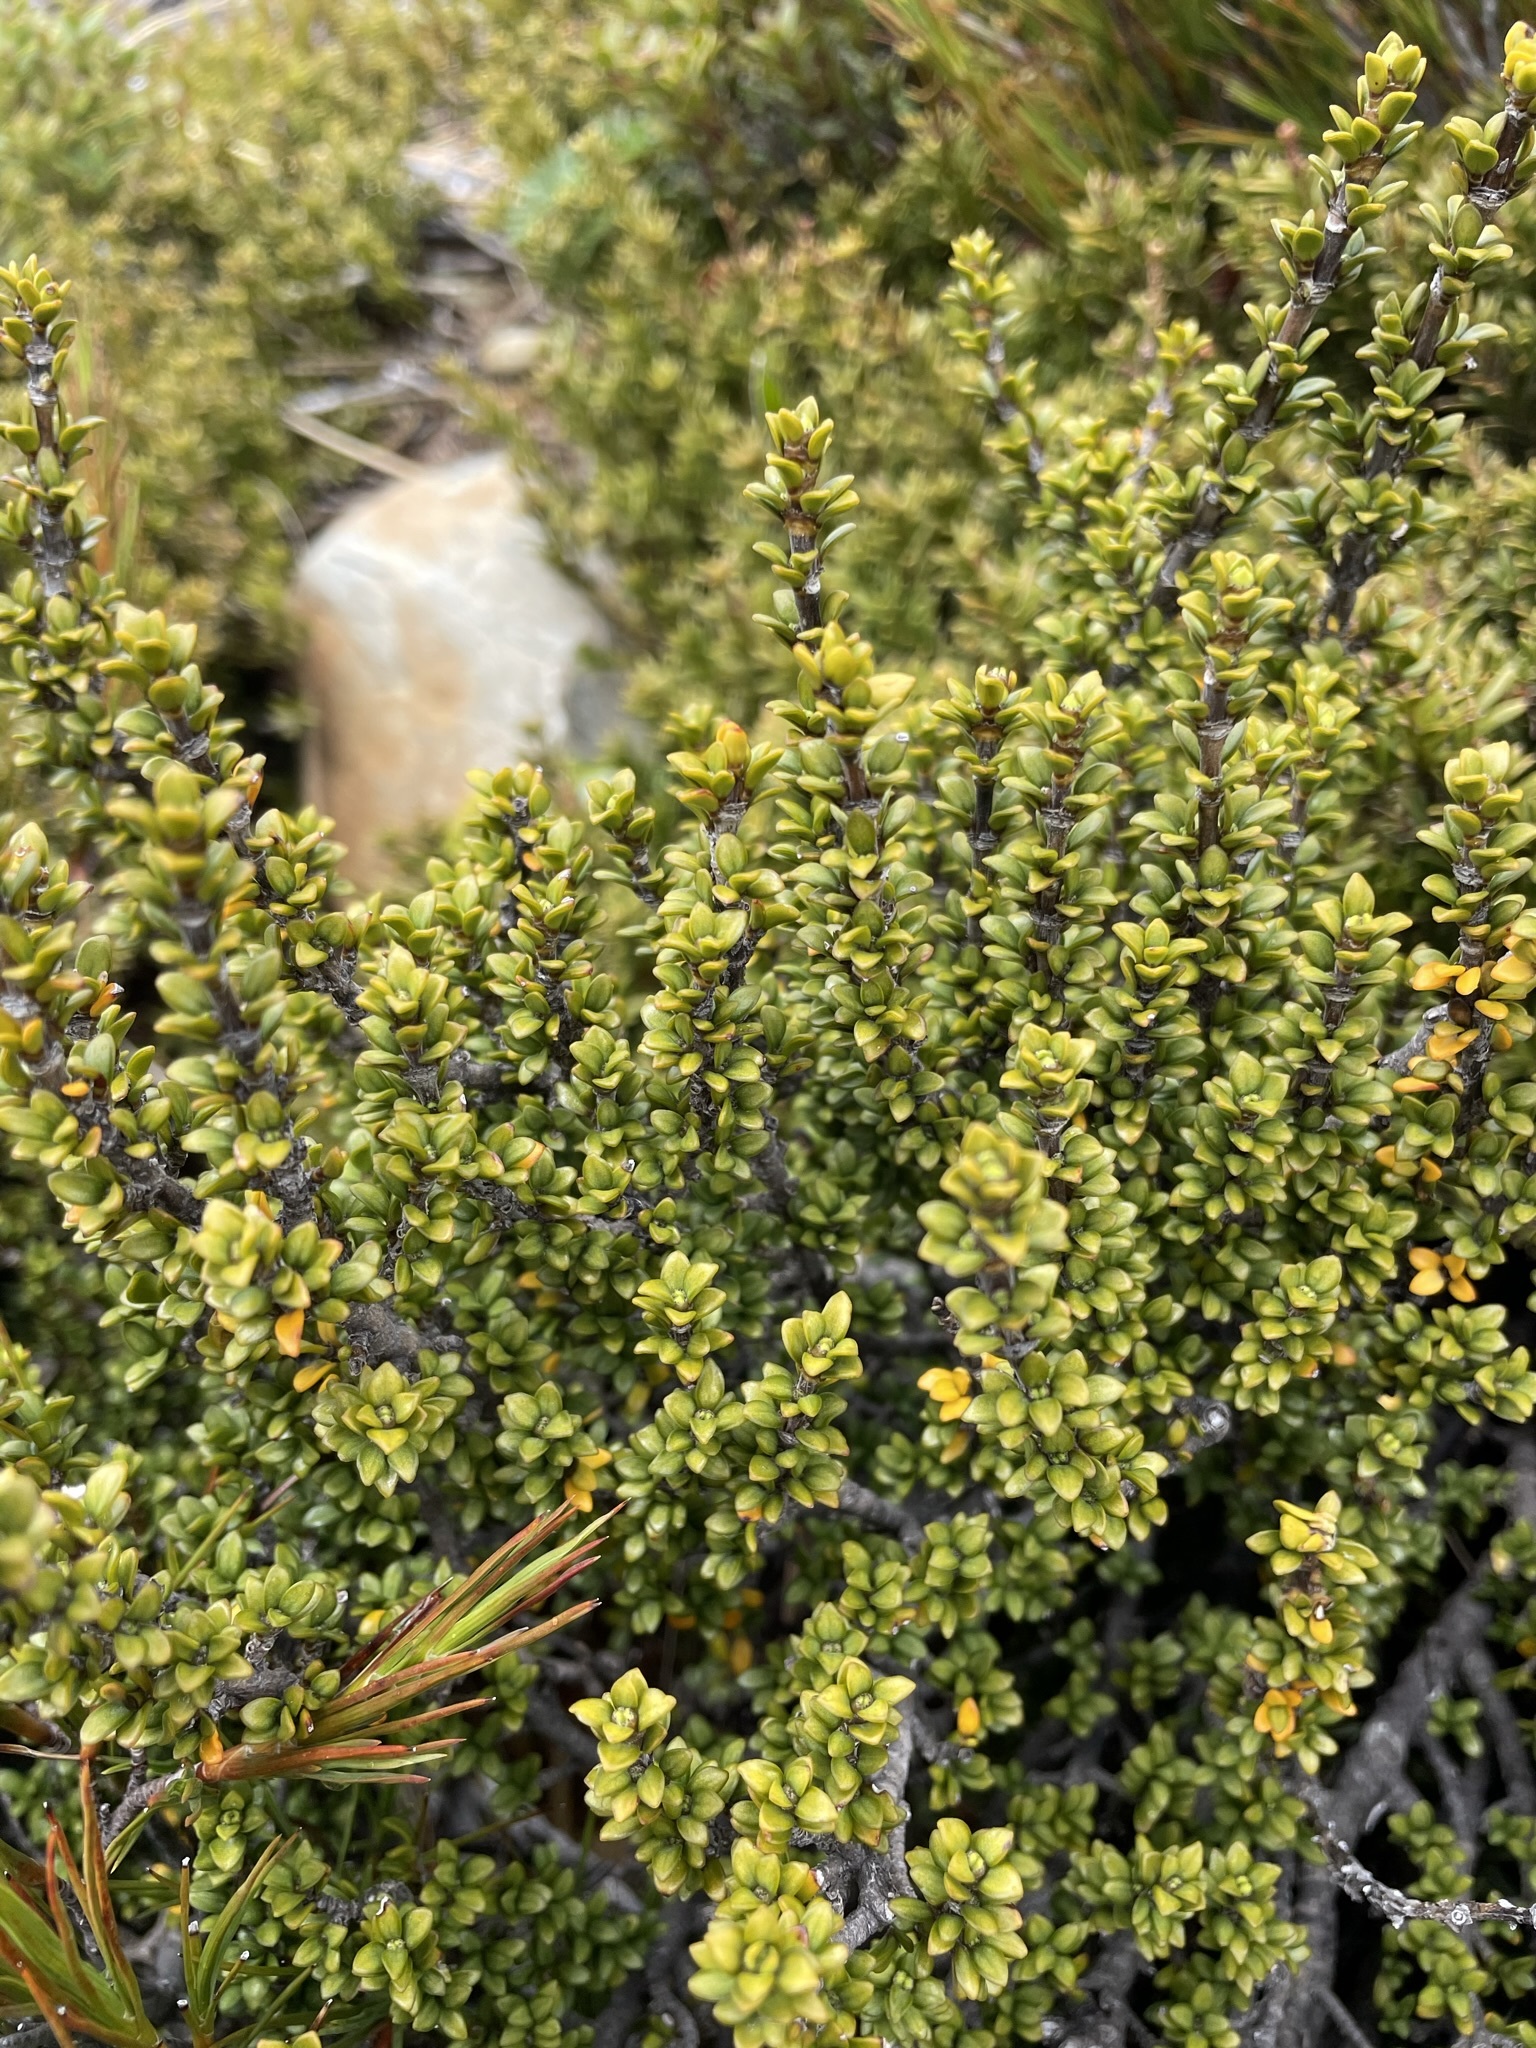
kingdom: Plantae
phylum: Tracheophyta
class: Magnoliopsida
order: Gentianales
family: Rubiaceae
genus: Coprosma
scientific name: Coprosma fowerakeri
